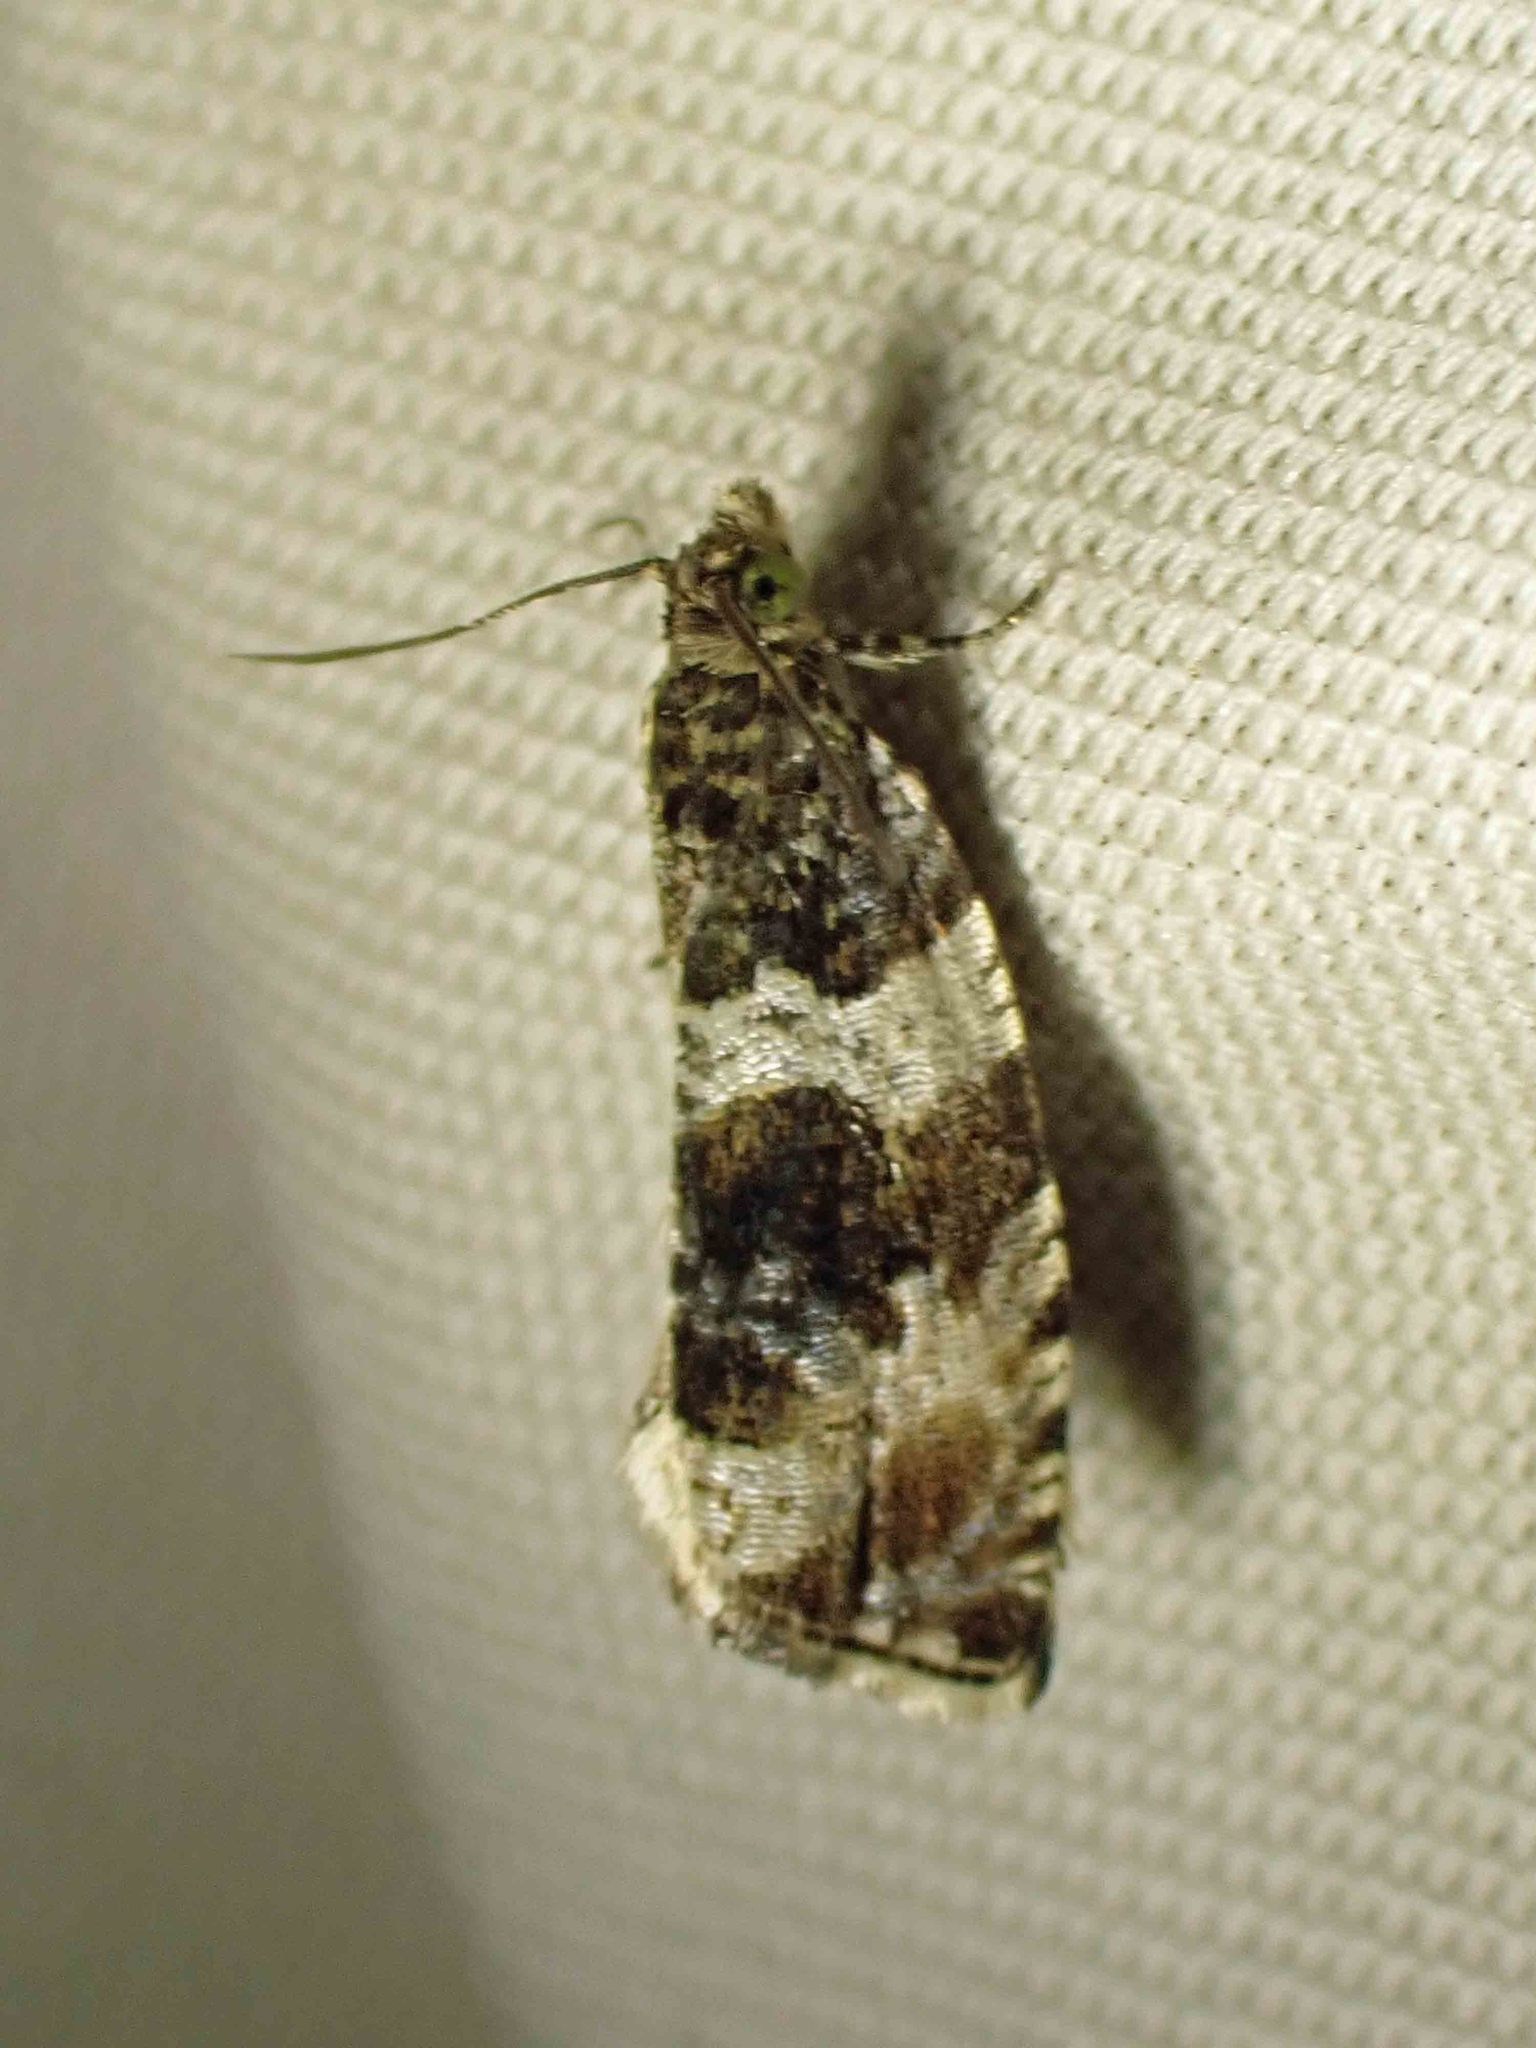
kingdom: Animalia
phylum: Arthropoda
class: Insecta
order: Lepidoptera
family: Tortricidae
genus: Orthotaenia
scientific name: Orthotaenia undulana
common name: Woodland marble
